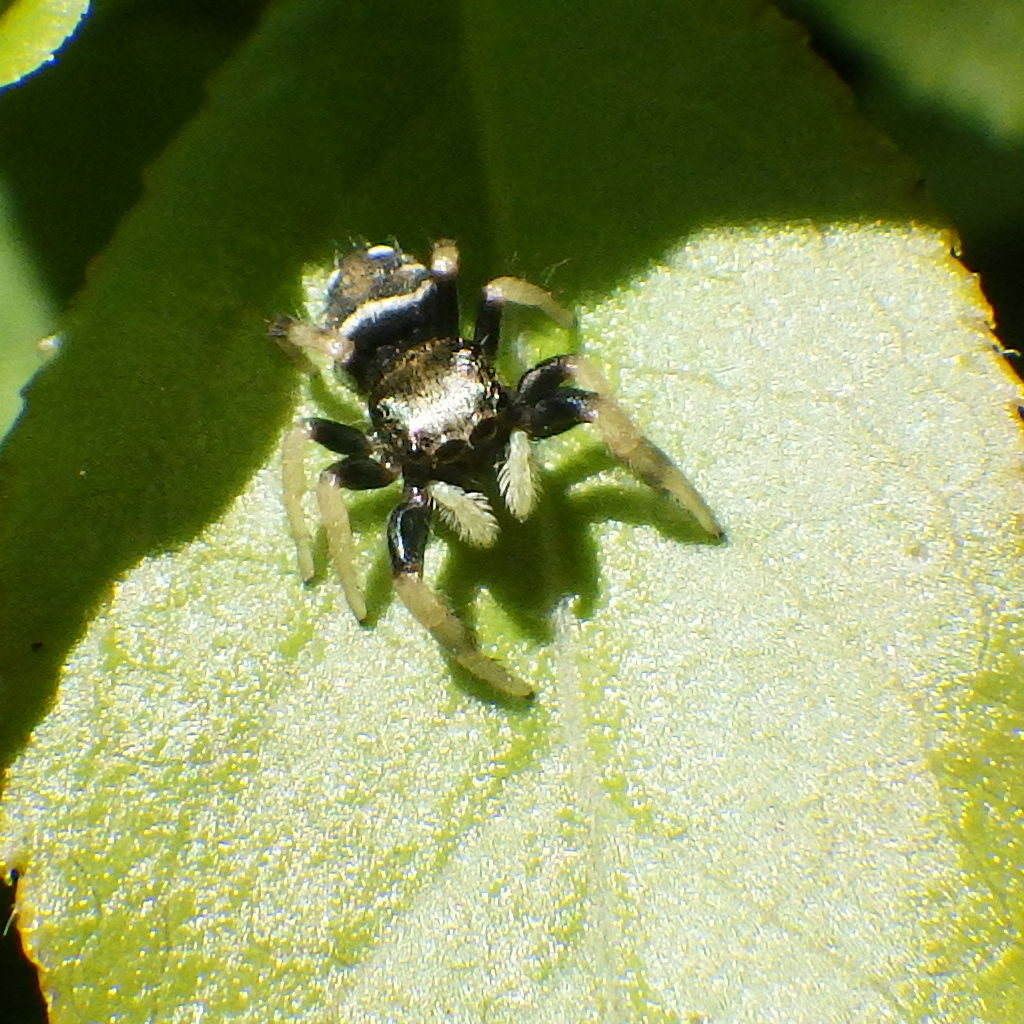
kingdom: Animalia
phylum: Arthropoda
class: Arachnida
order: Araneae
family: Salticidae
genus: Phidippus
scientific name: Phidippus whitmani
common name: Whitman's jumping spider
